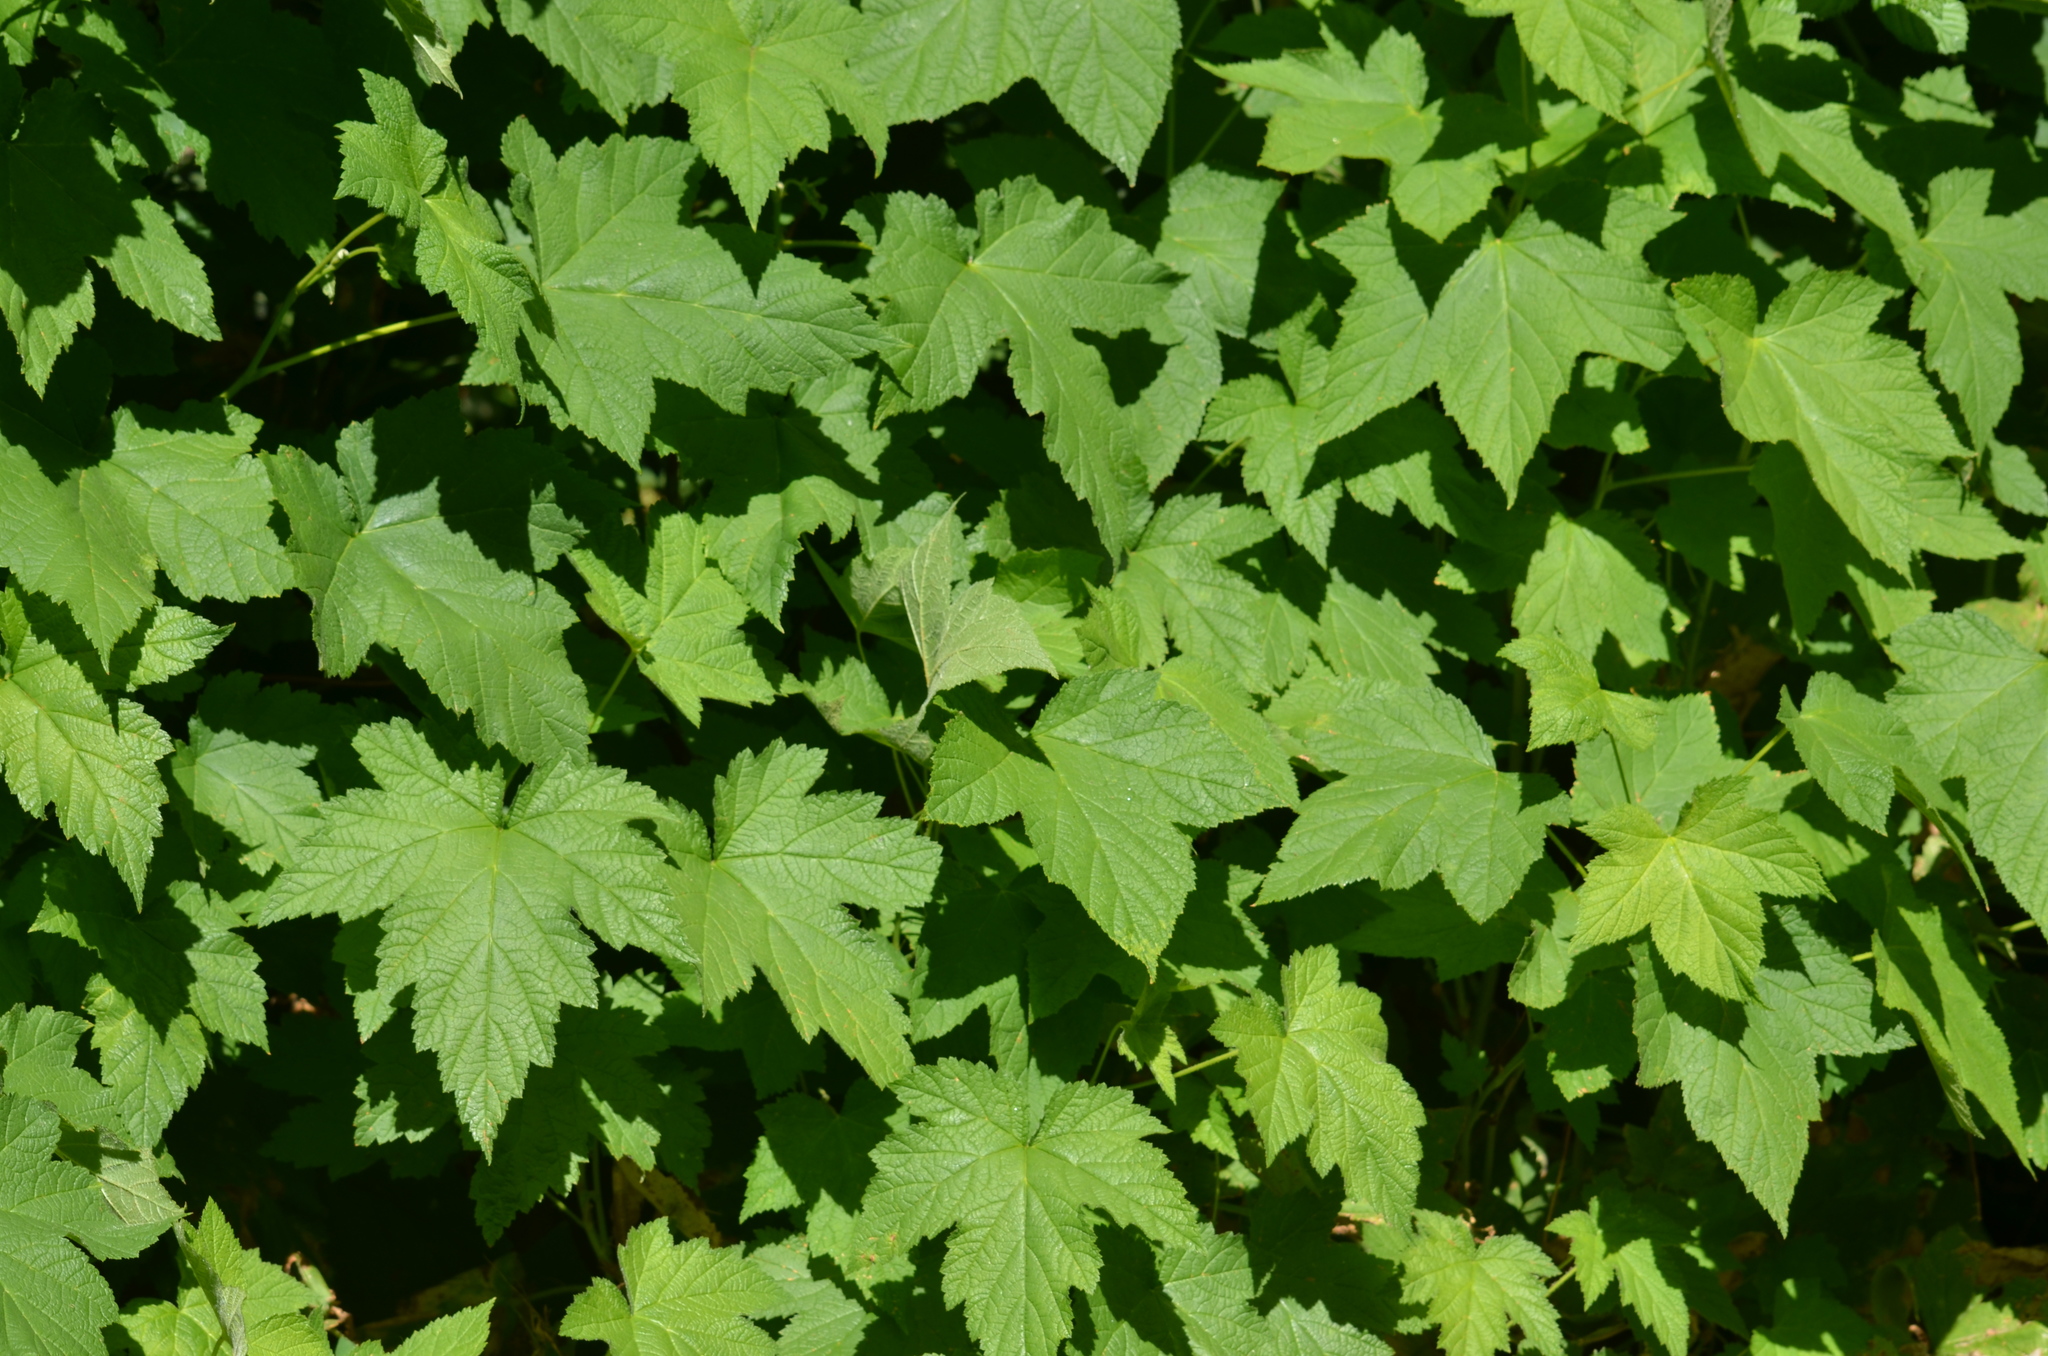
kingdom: Plantae
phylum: Tracheophyta
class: Magnoliopsida
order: Saxifragales
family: Grossulariaceae
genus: Ribes
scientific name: Ribes bracteosum
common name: California black currant
